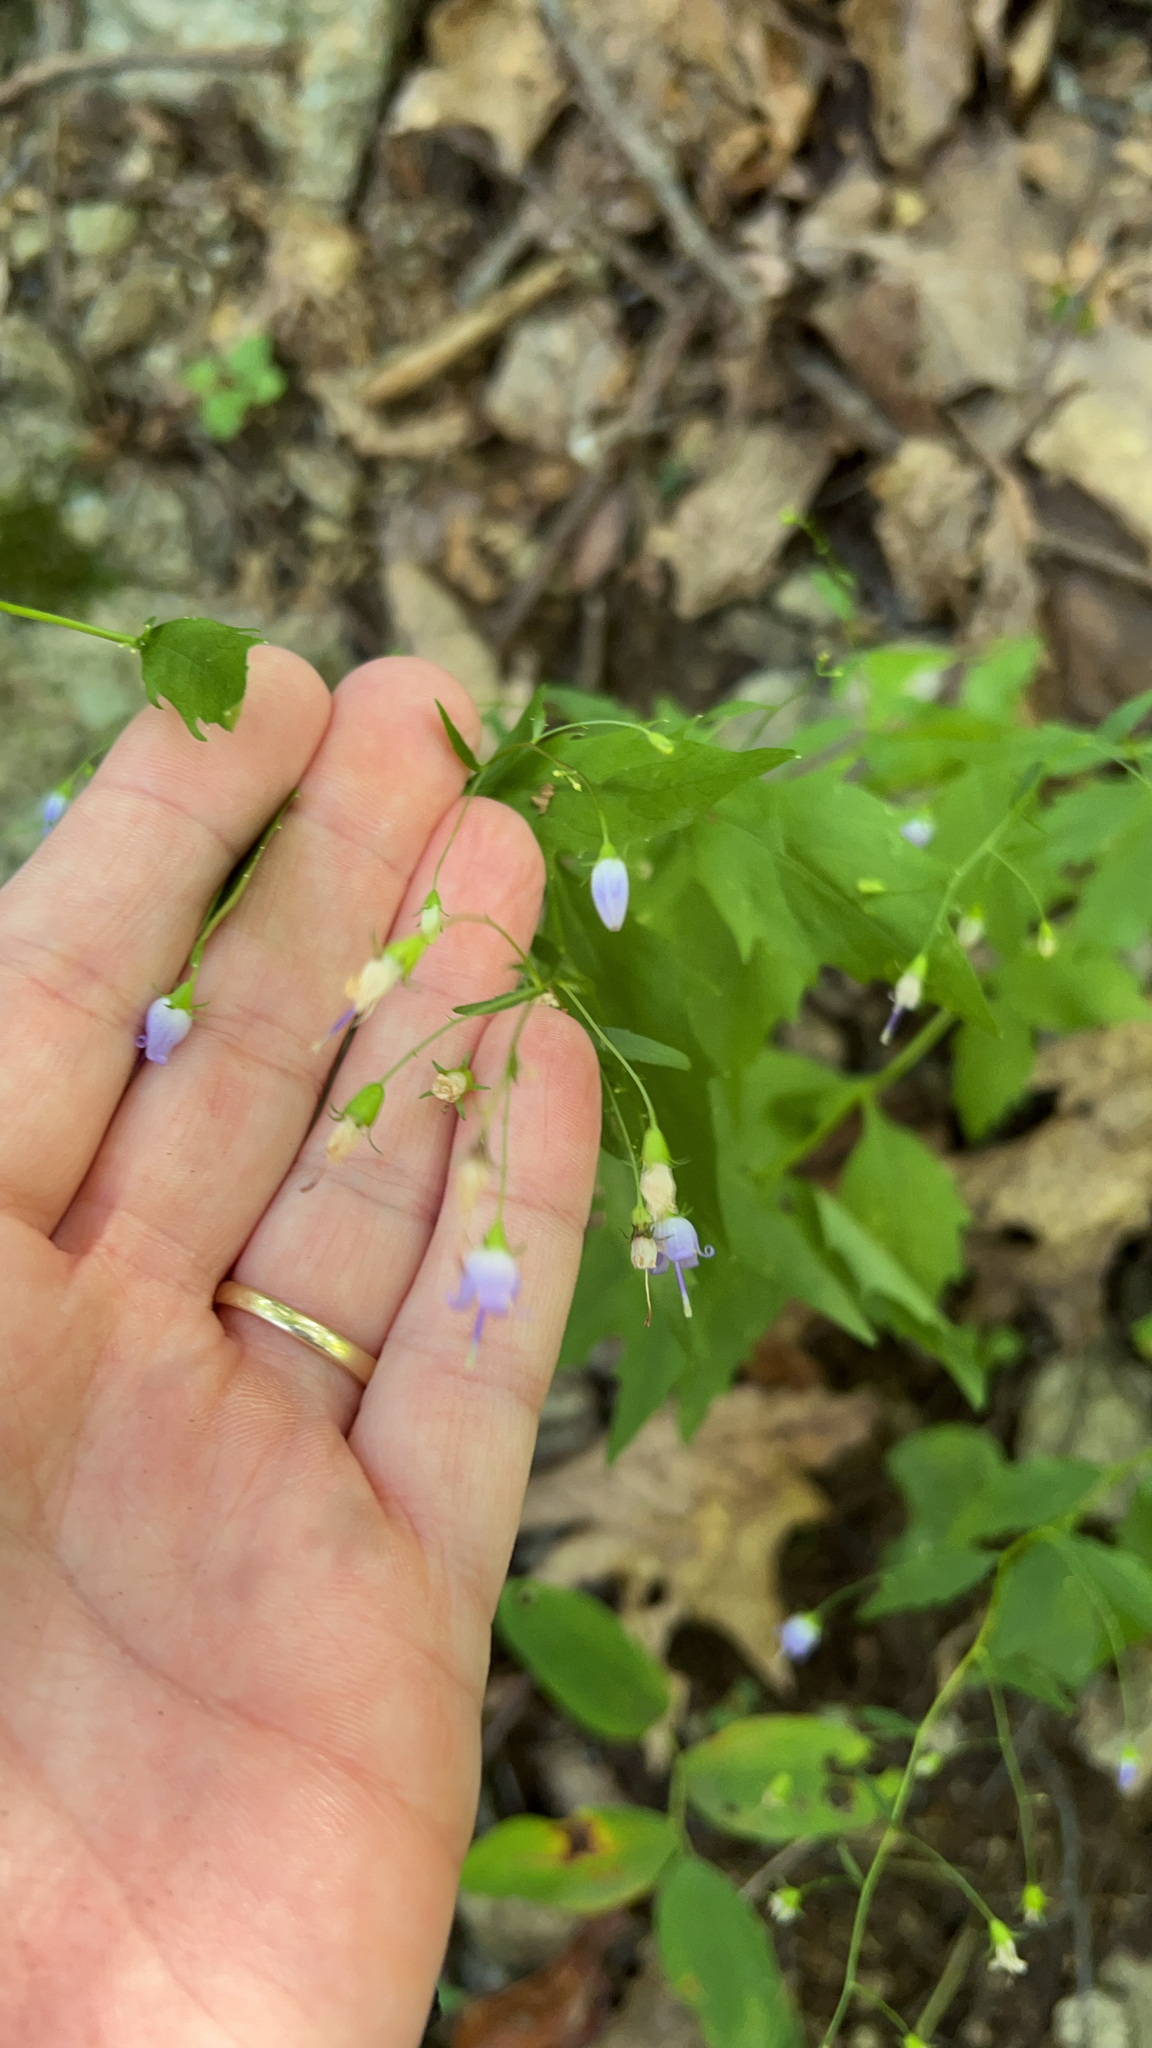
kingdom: Plantae
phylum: Tracheophyta
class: Magnoliopsida
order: Asterales
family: Campanulaceae
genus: Campanula
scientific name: Campanula divaricata
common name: Appalachian bellflower
